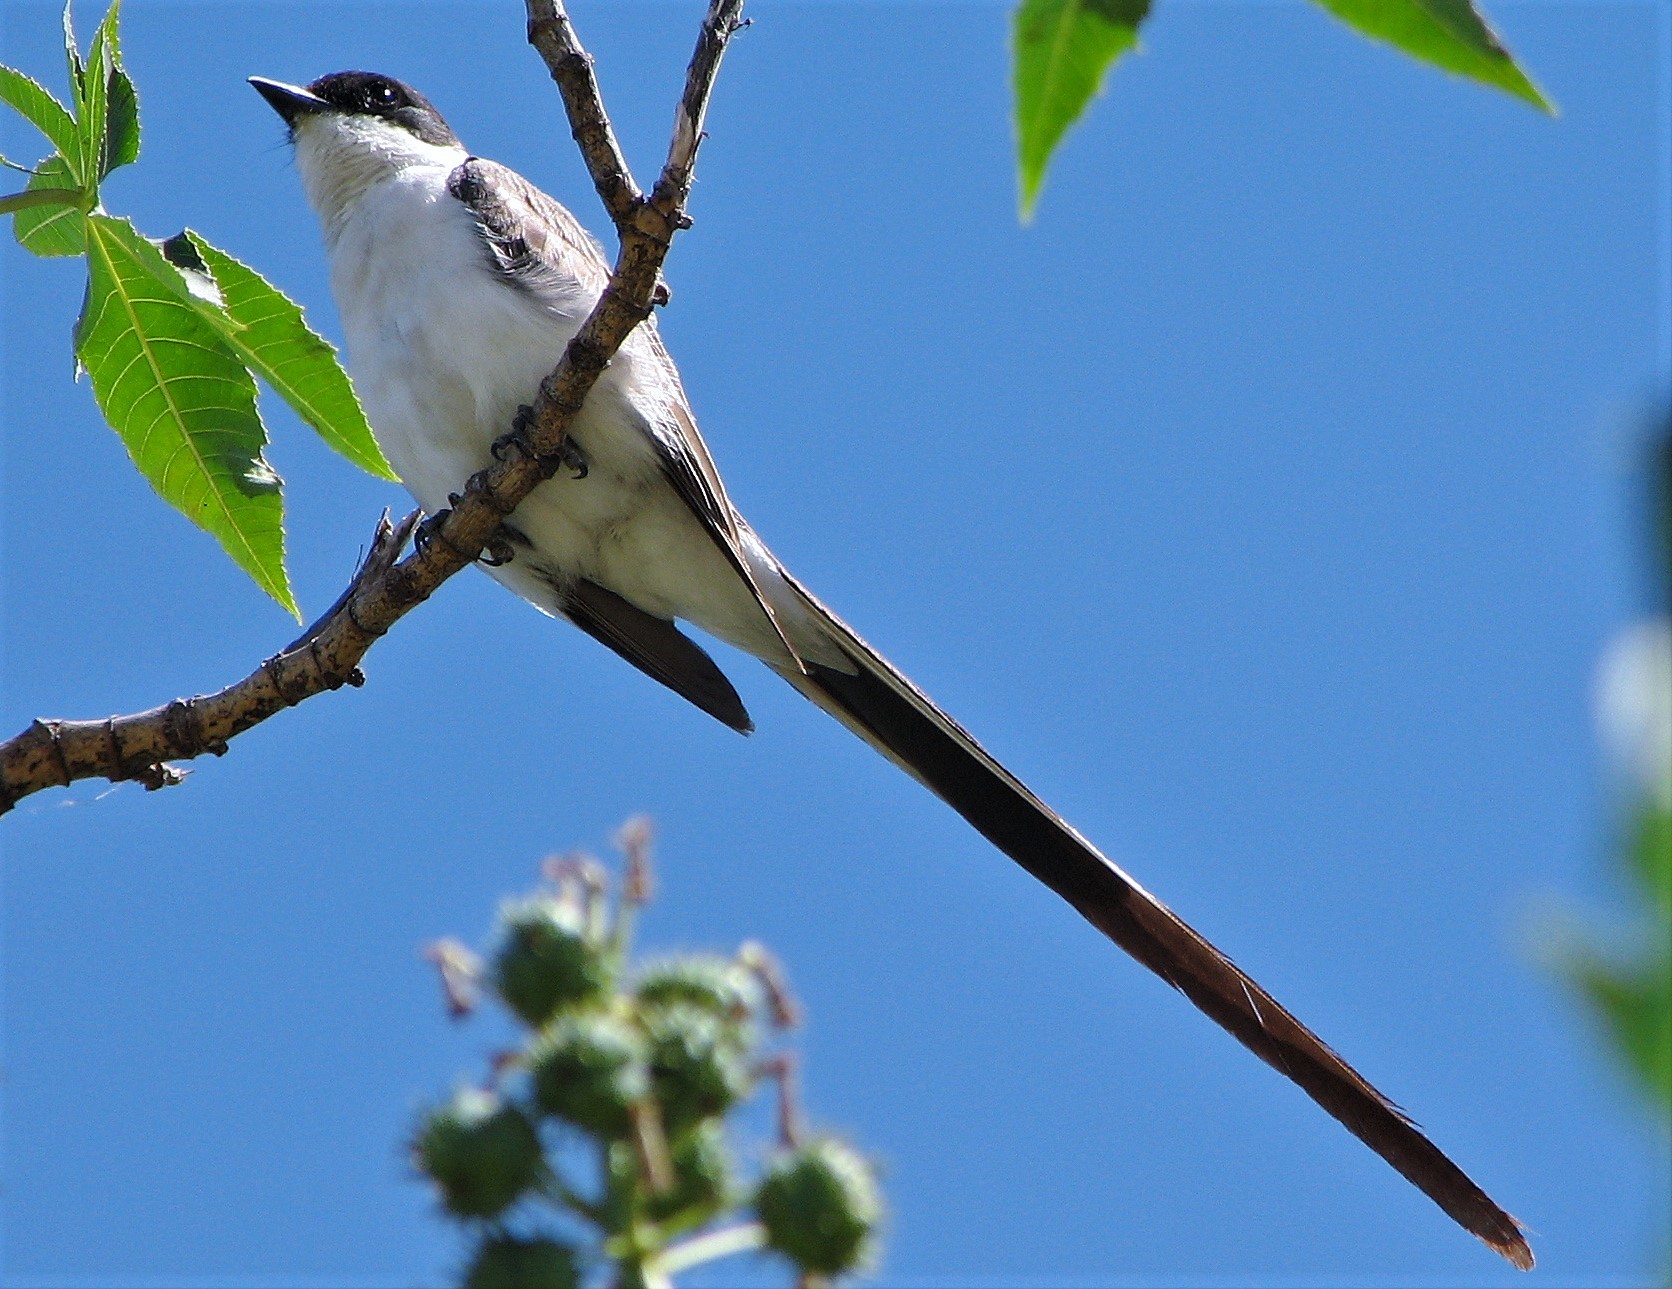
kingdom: Animalia
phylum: Chordata
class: Aves
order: Passeriformes
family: Tyrannidae
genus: Tyrannus
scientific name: Tyrannus savana
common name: Fork-tailed flycatcher
